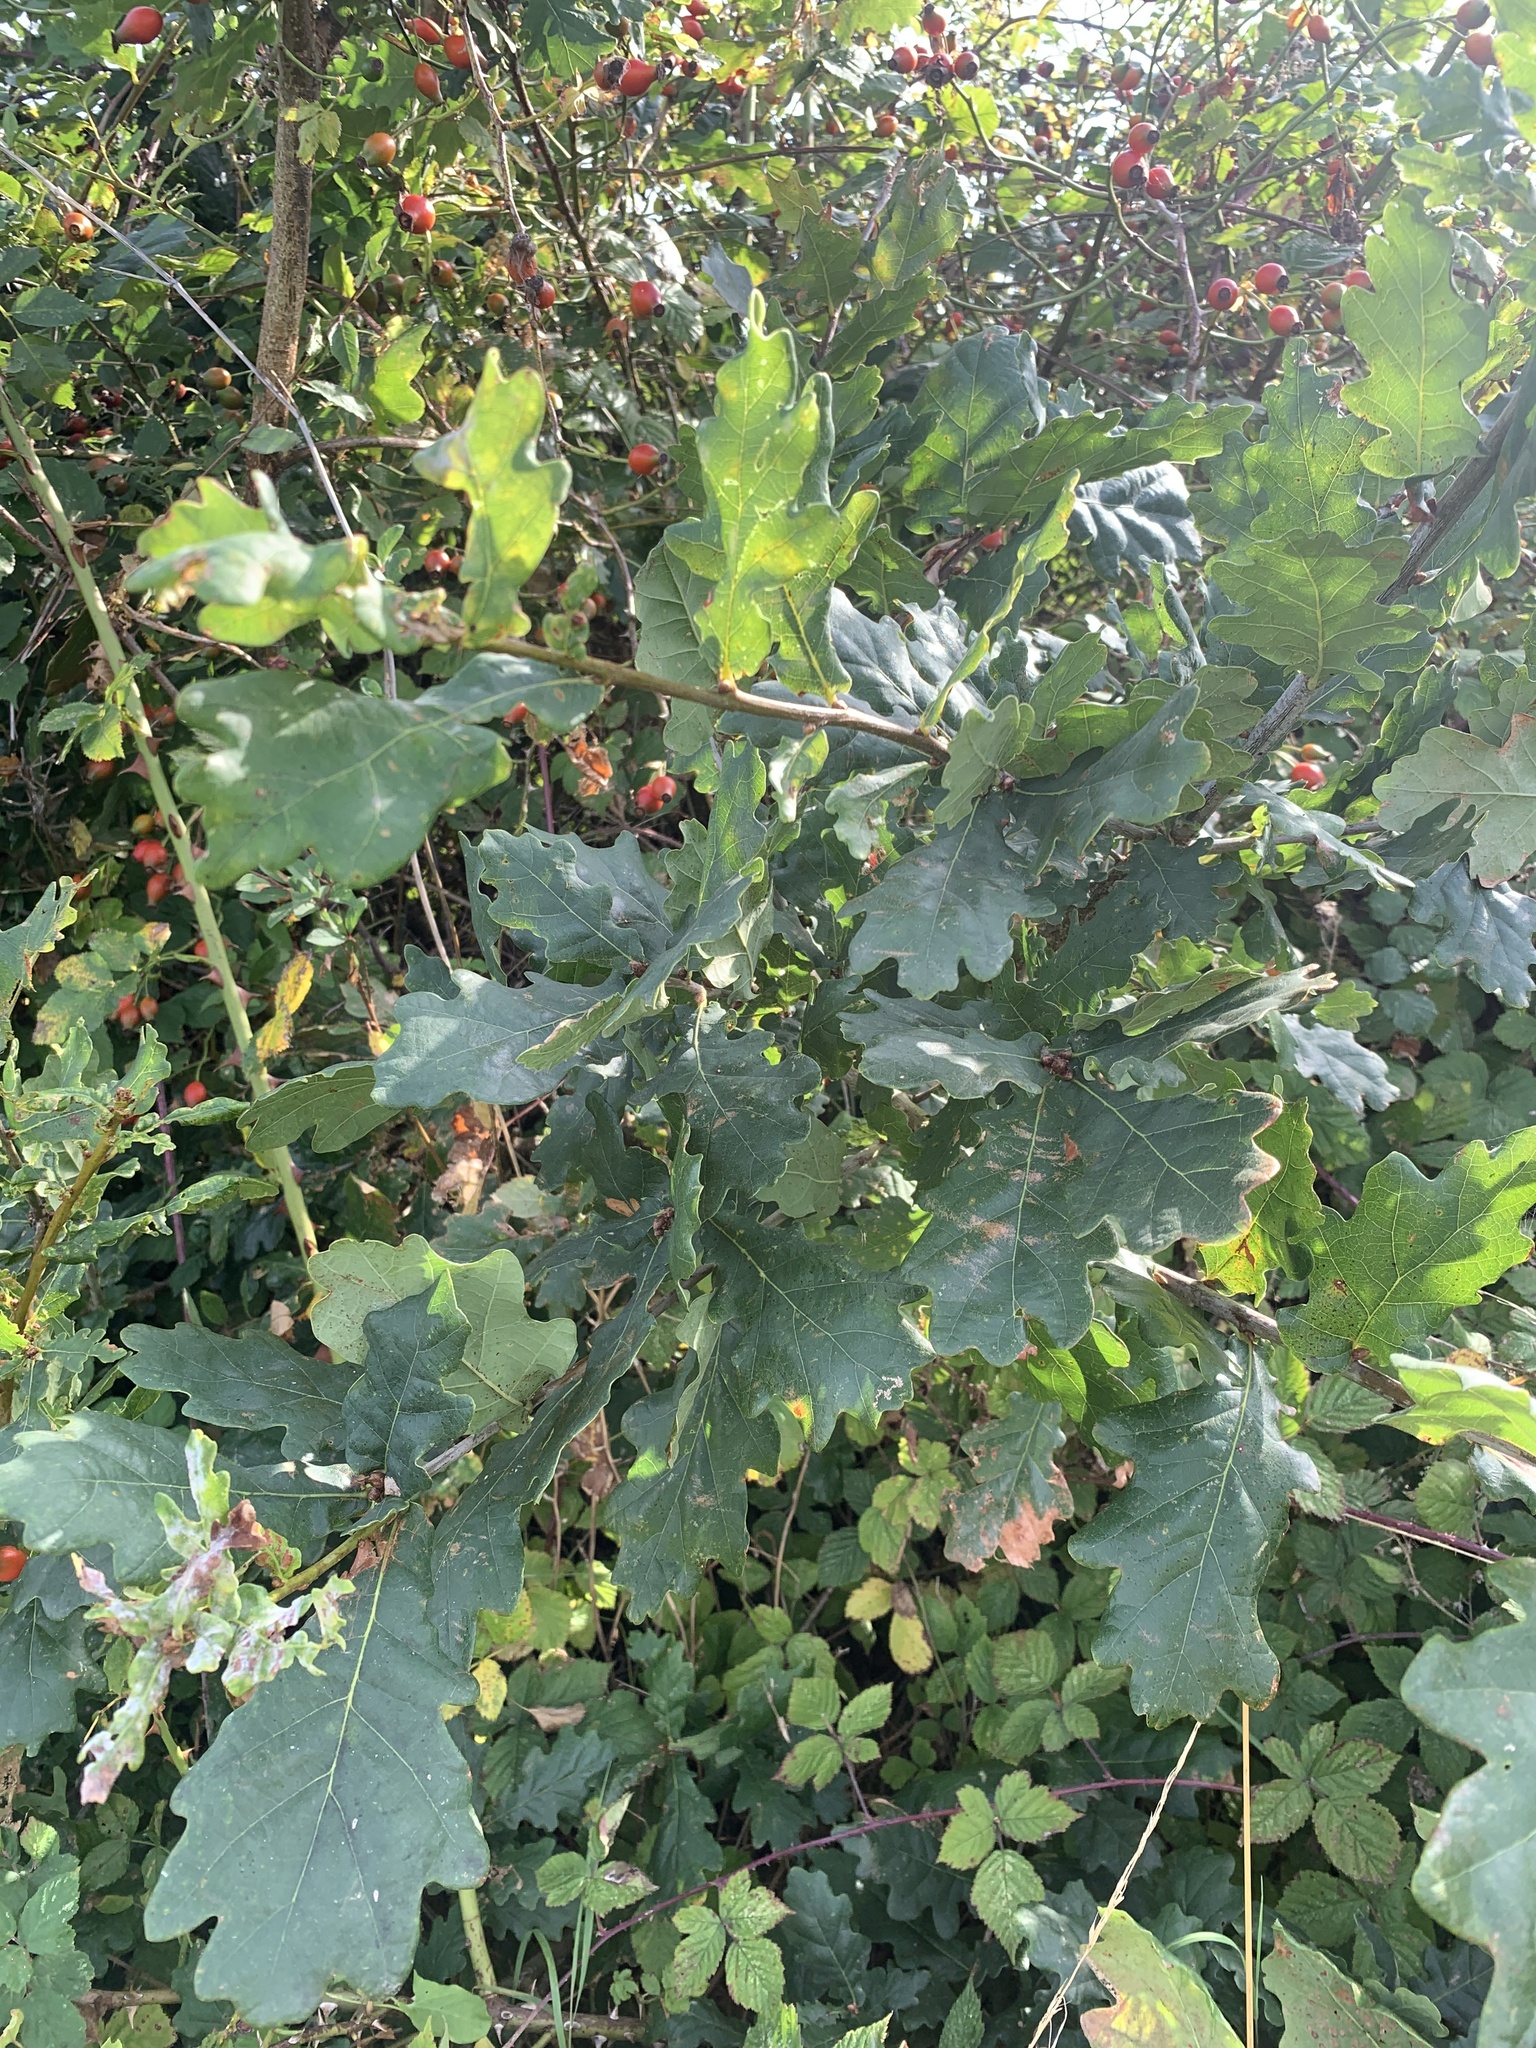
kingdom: Plantae
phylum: Tracheophyta
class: Magnoliopsida
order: Fagales
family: Fagaceae
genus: Quercus
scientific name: Quercus robur
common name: Pedunculate oak
